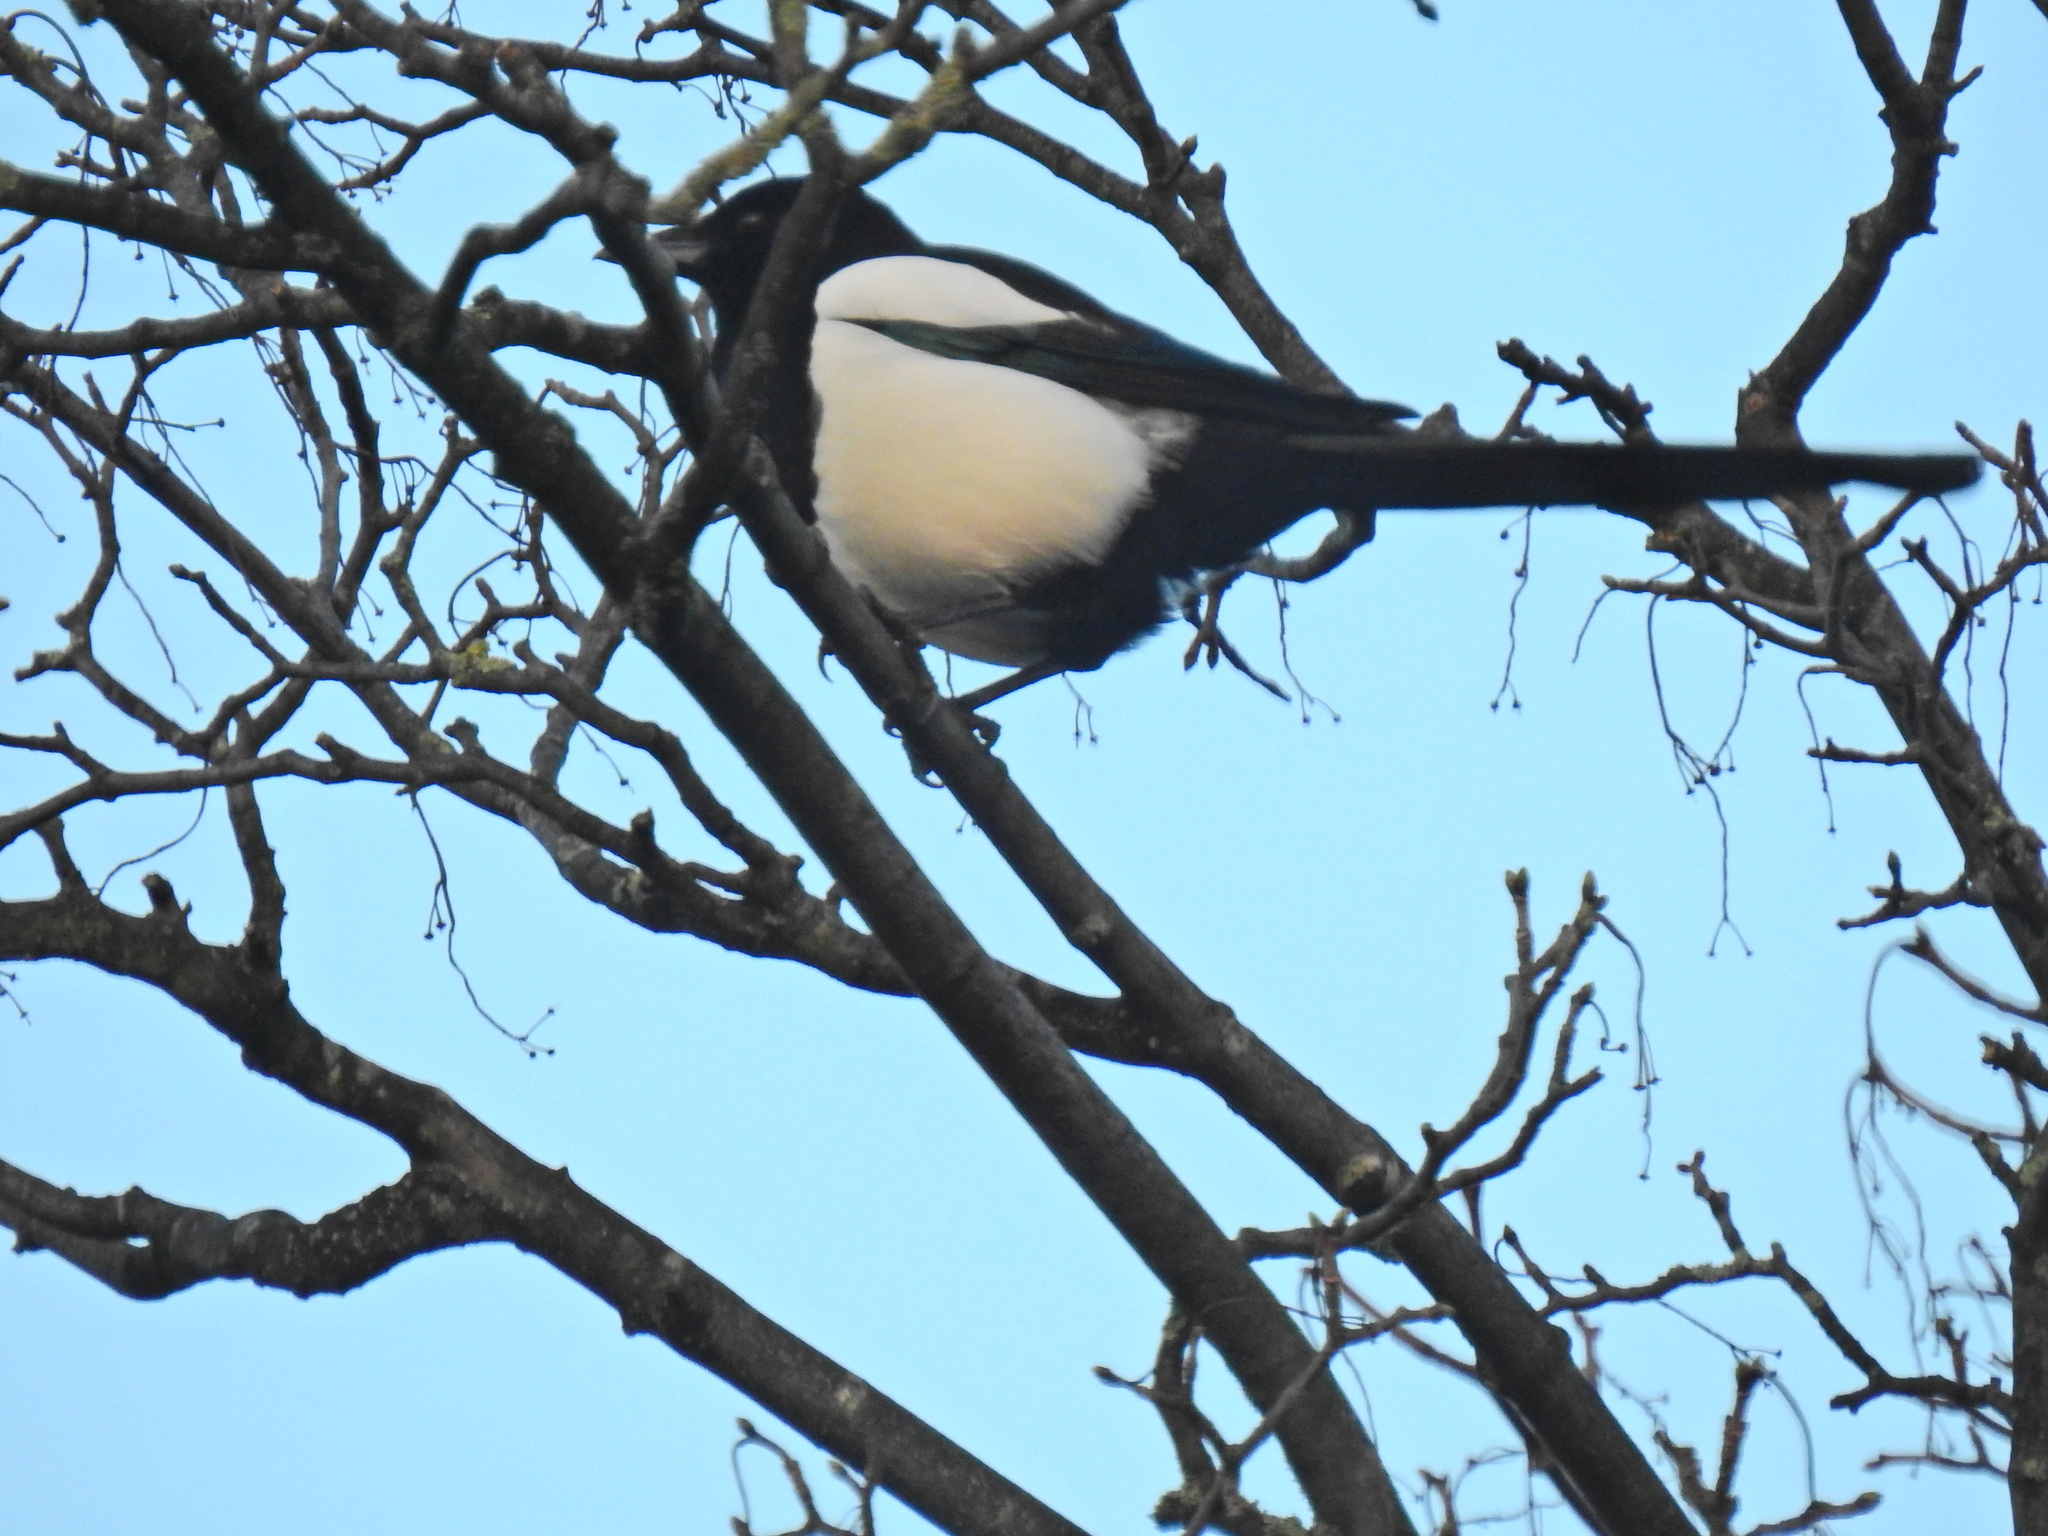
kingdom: Animalia
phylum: Chordata
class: Aves
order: Passeriformes
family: Corvidae
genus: Pica
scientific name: Pica pica
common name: Eurasian magpie
